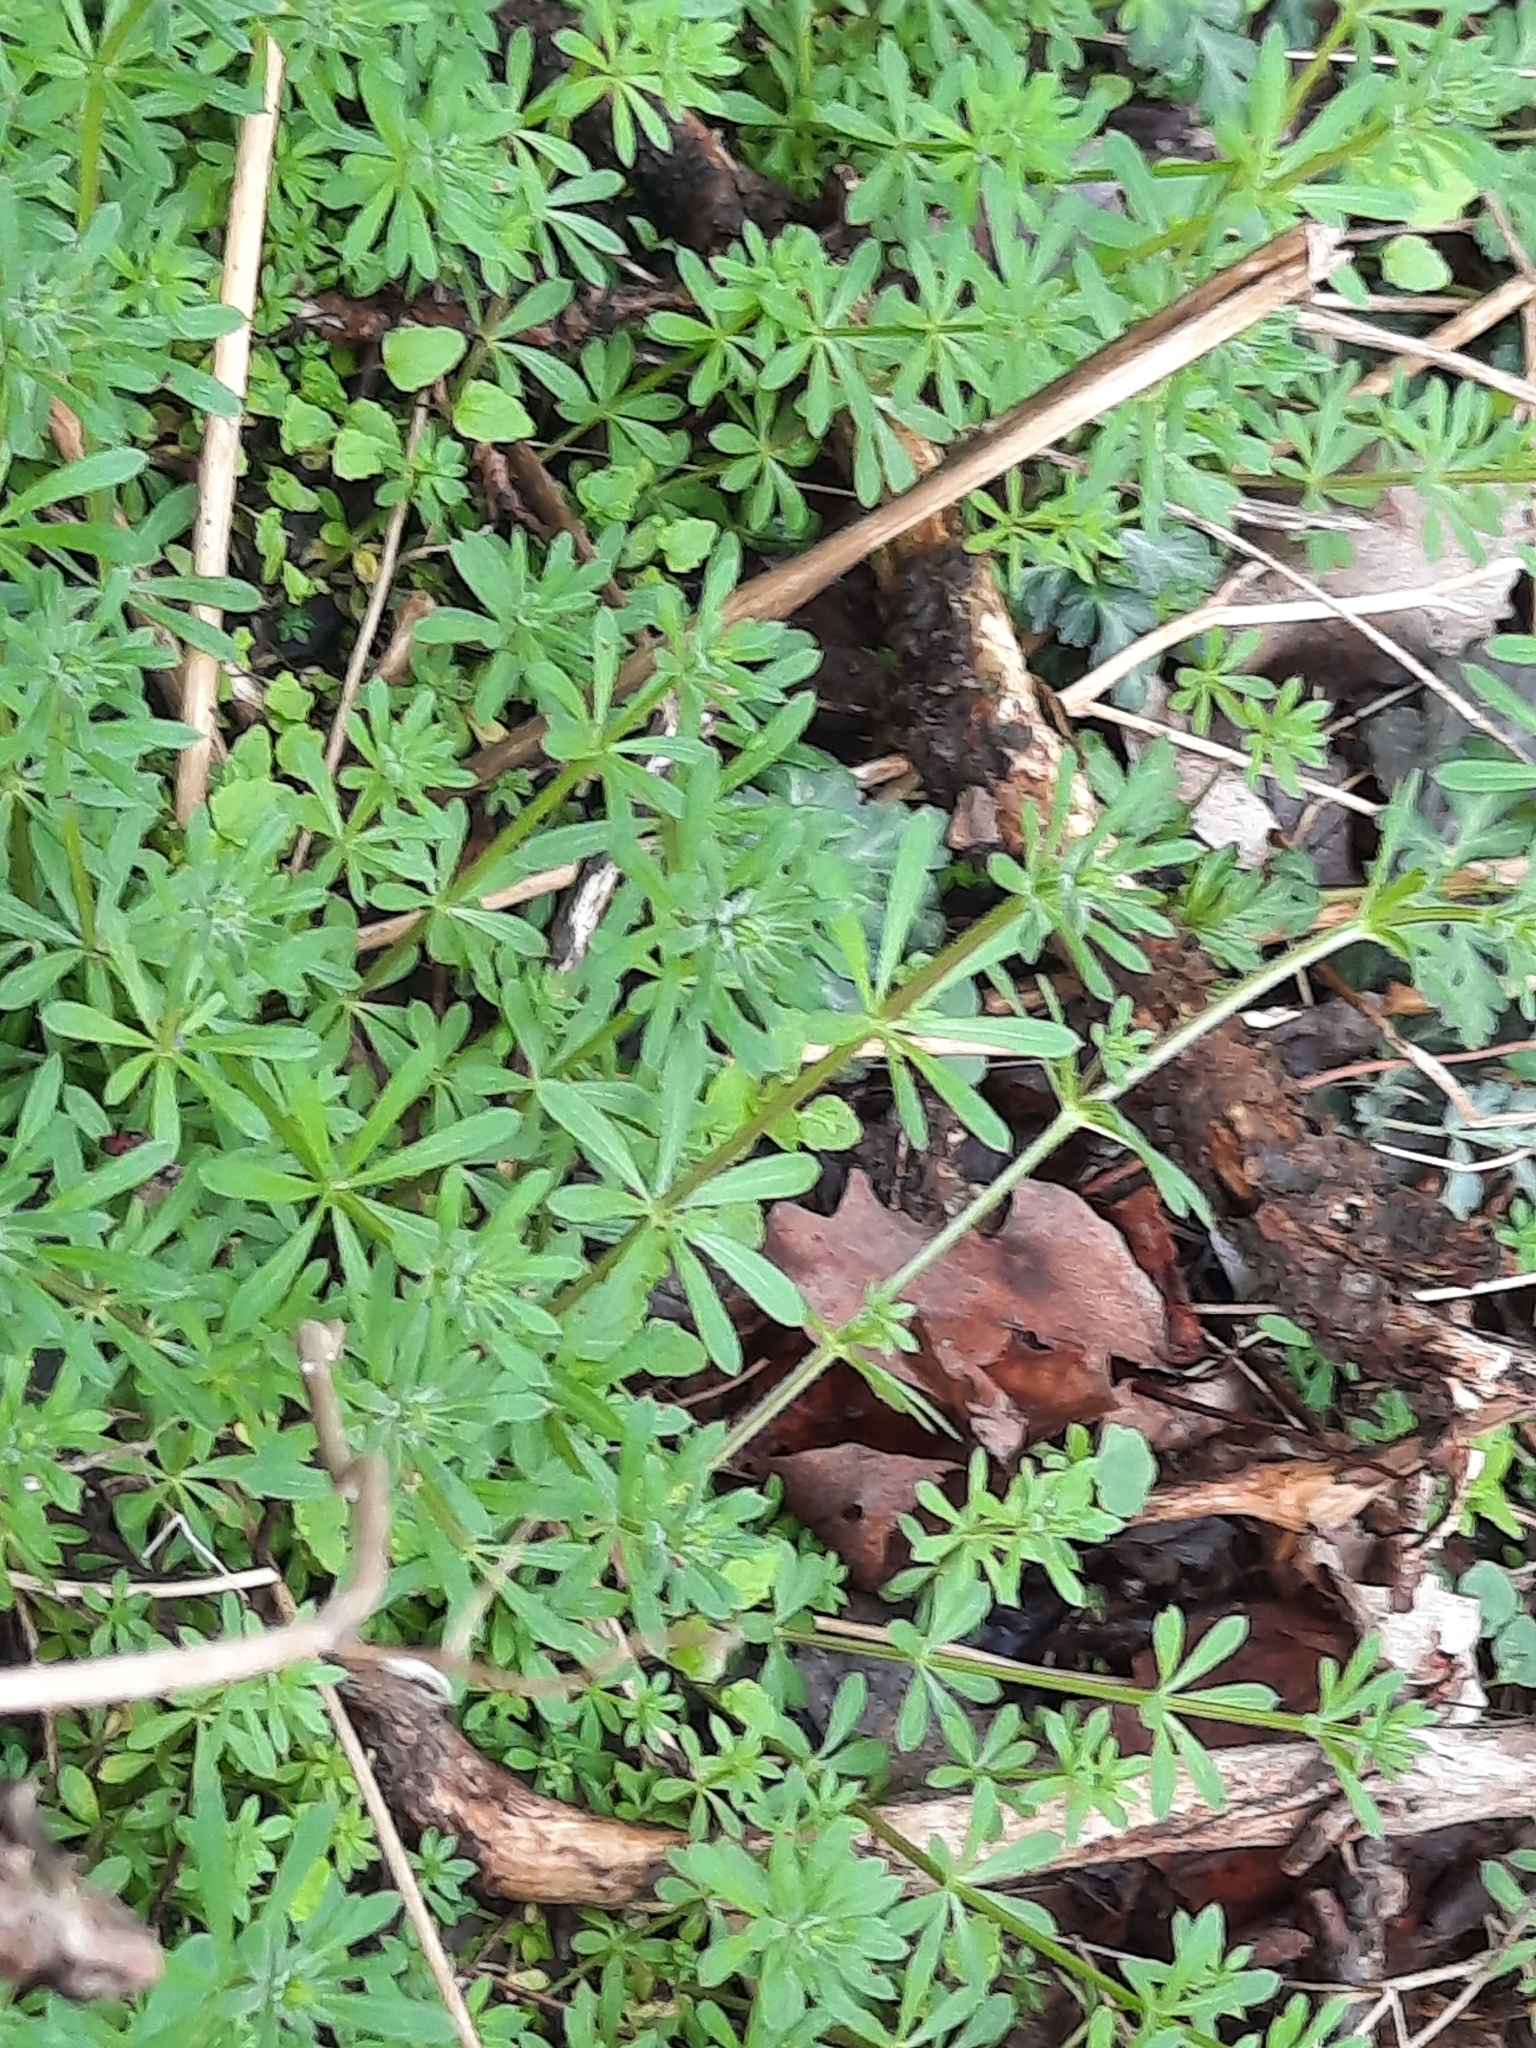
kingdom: Plantae
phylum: Tracheophyta
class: Magnoliopsida
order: Gentianales
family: Rubiaceae
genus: Galium
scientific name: Galium aparine
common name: Cleavers
